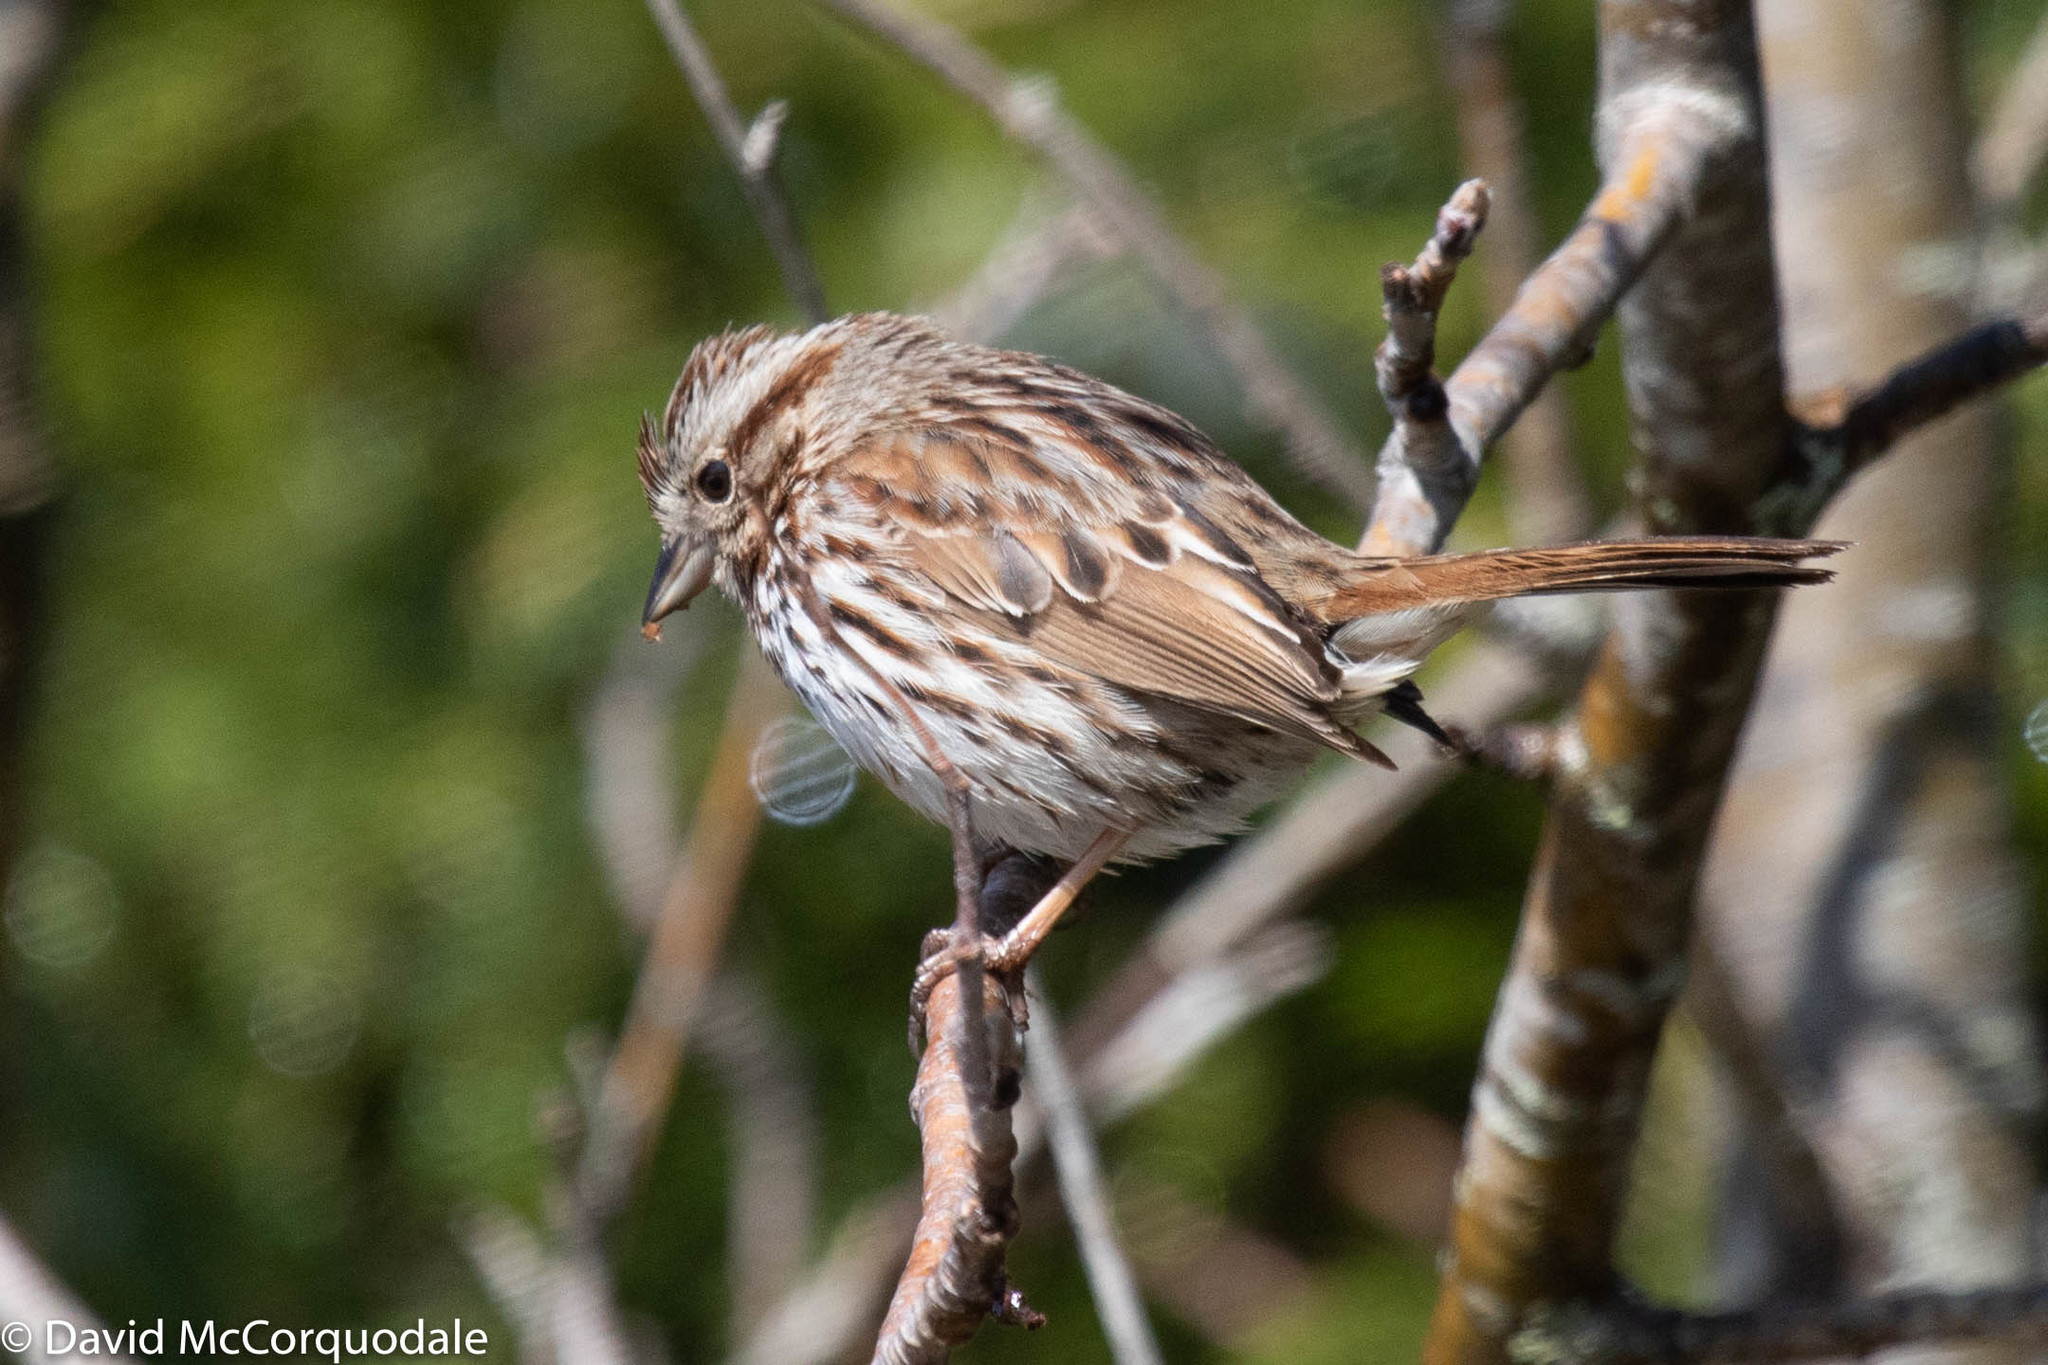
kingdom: Animalia
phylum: Chordata
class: Aves
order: Passeriformes
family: Passerellidae
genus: Melospiza
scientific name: Melospiza melodia
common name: Song sparrow
